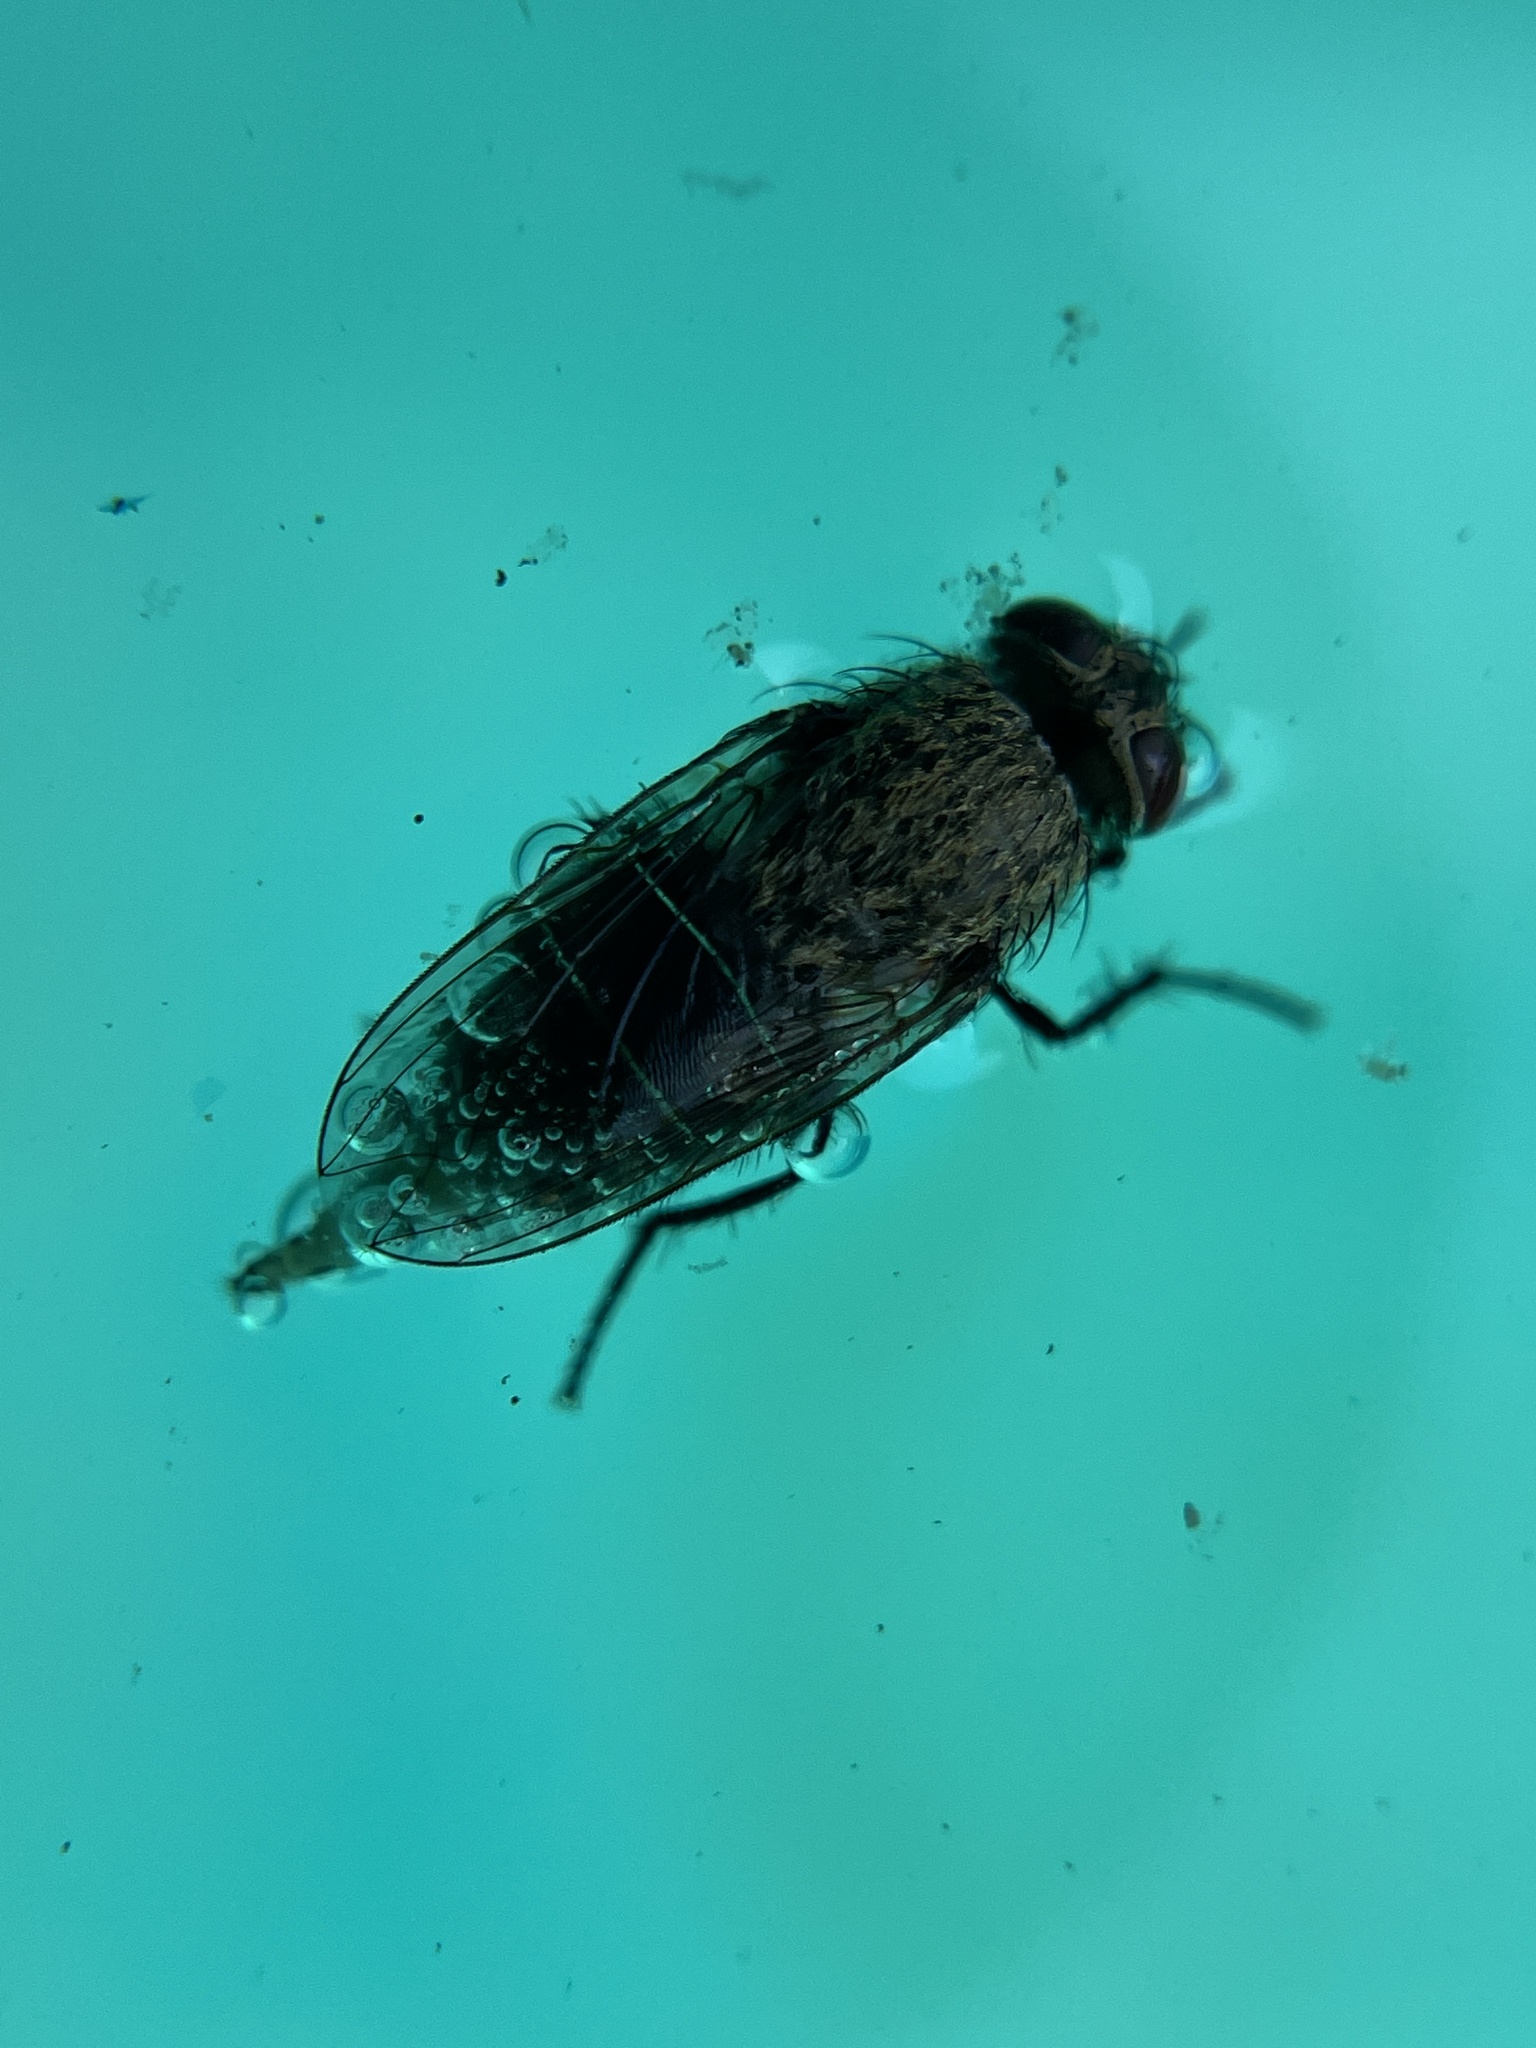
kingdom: Animalia
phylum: Arthropoda
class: Insecta
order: Diptera
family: Polleniidae
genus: Pollenia
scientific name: Pollenia
